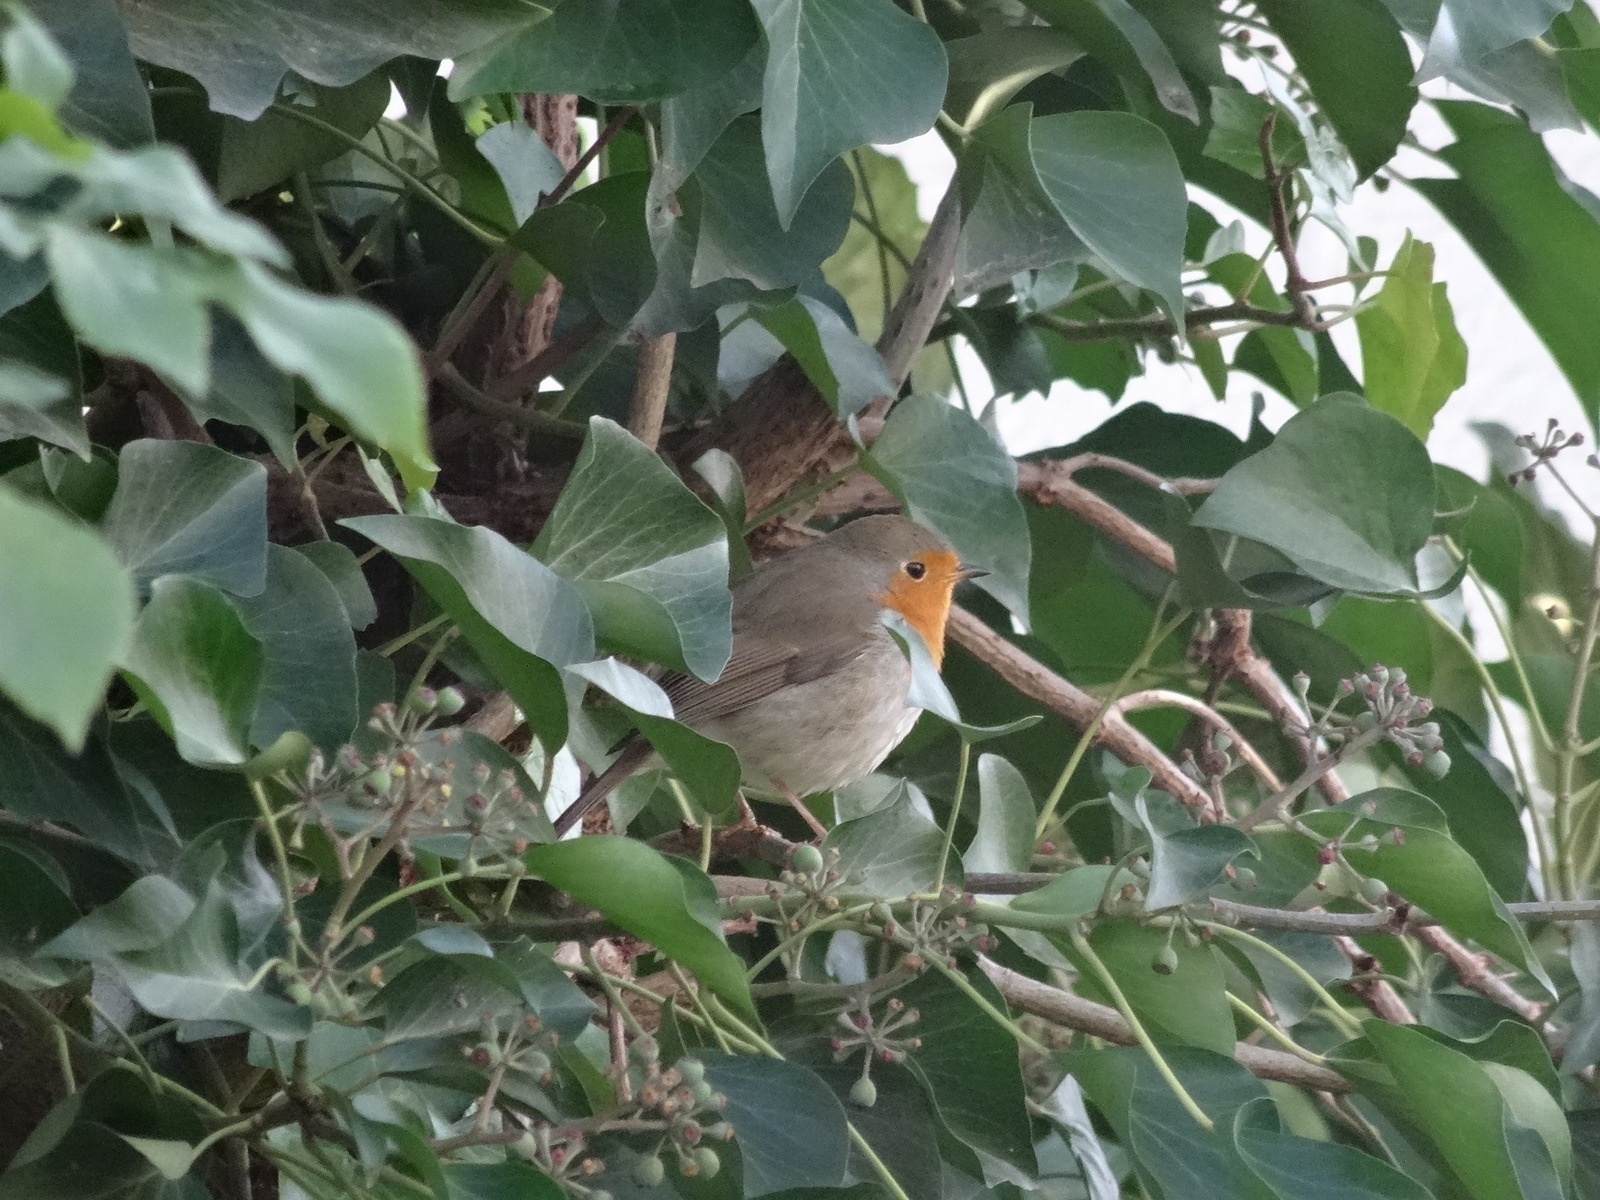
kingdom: Animalia
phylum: Chordata
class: Aves
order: Passeriformes
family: Muscicapidae
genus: Erithacus
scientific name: Erithacus rubecula
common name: European robin
